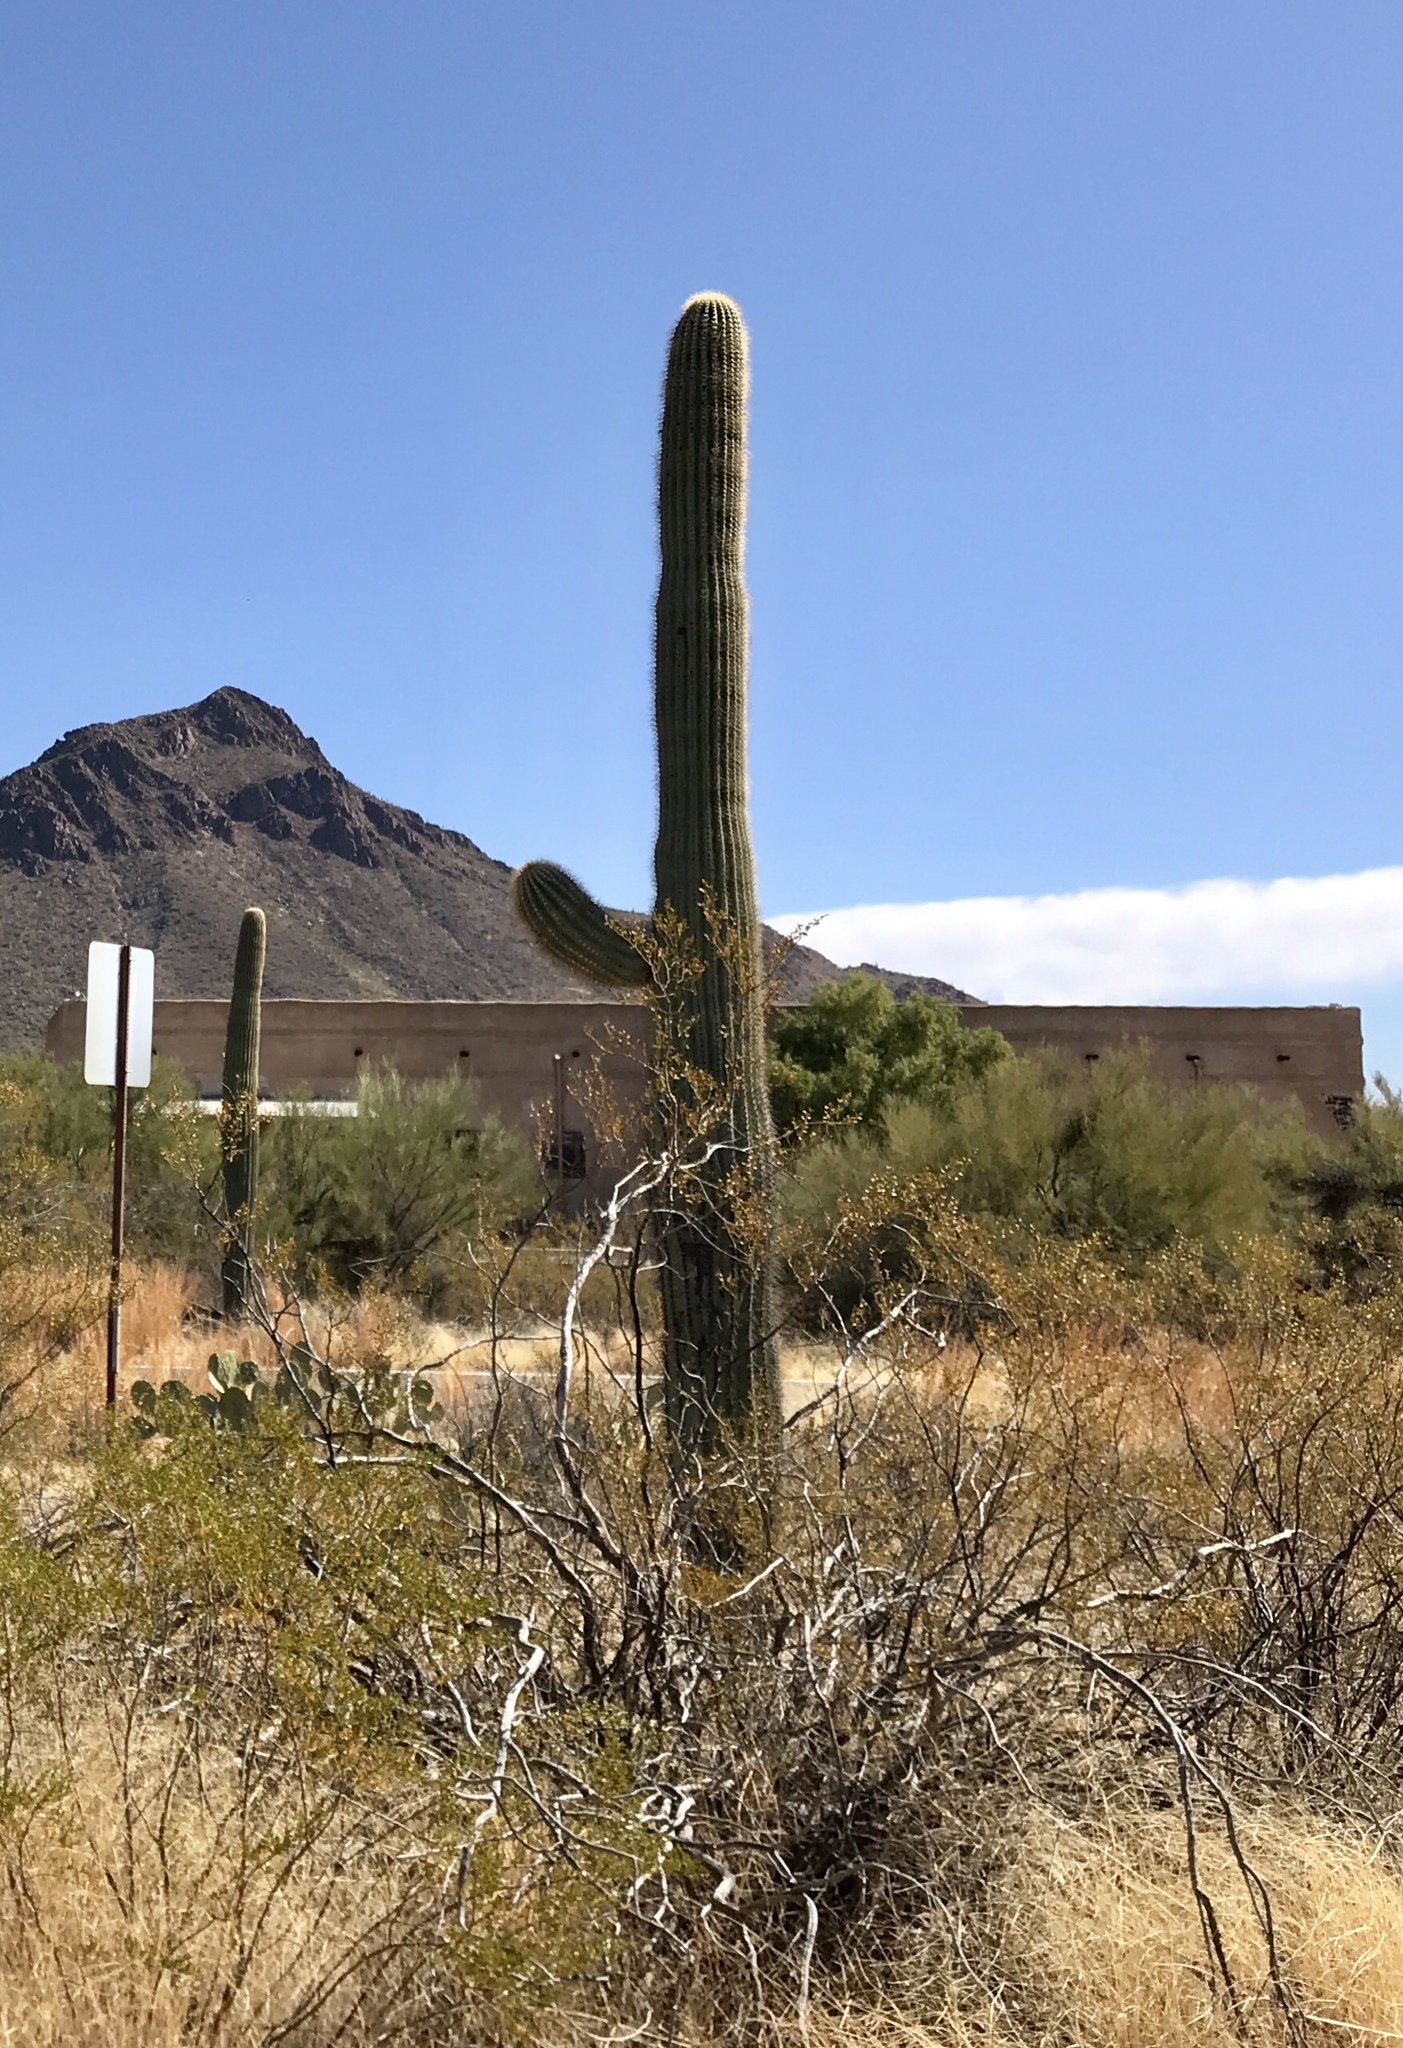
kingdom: Plantae
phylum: Tracheophyta
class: Magnoliopsida
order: Caryophyllales
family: Cactaceae
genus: Carnegiea
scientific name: Carnegiea gigantea
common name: Saguaro
